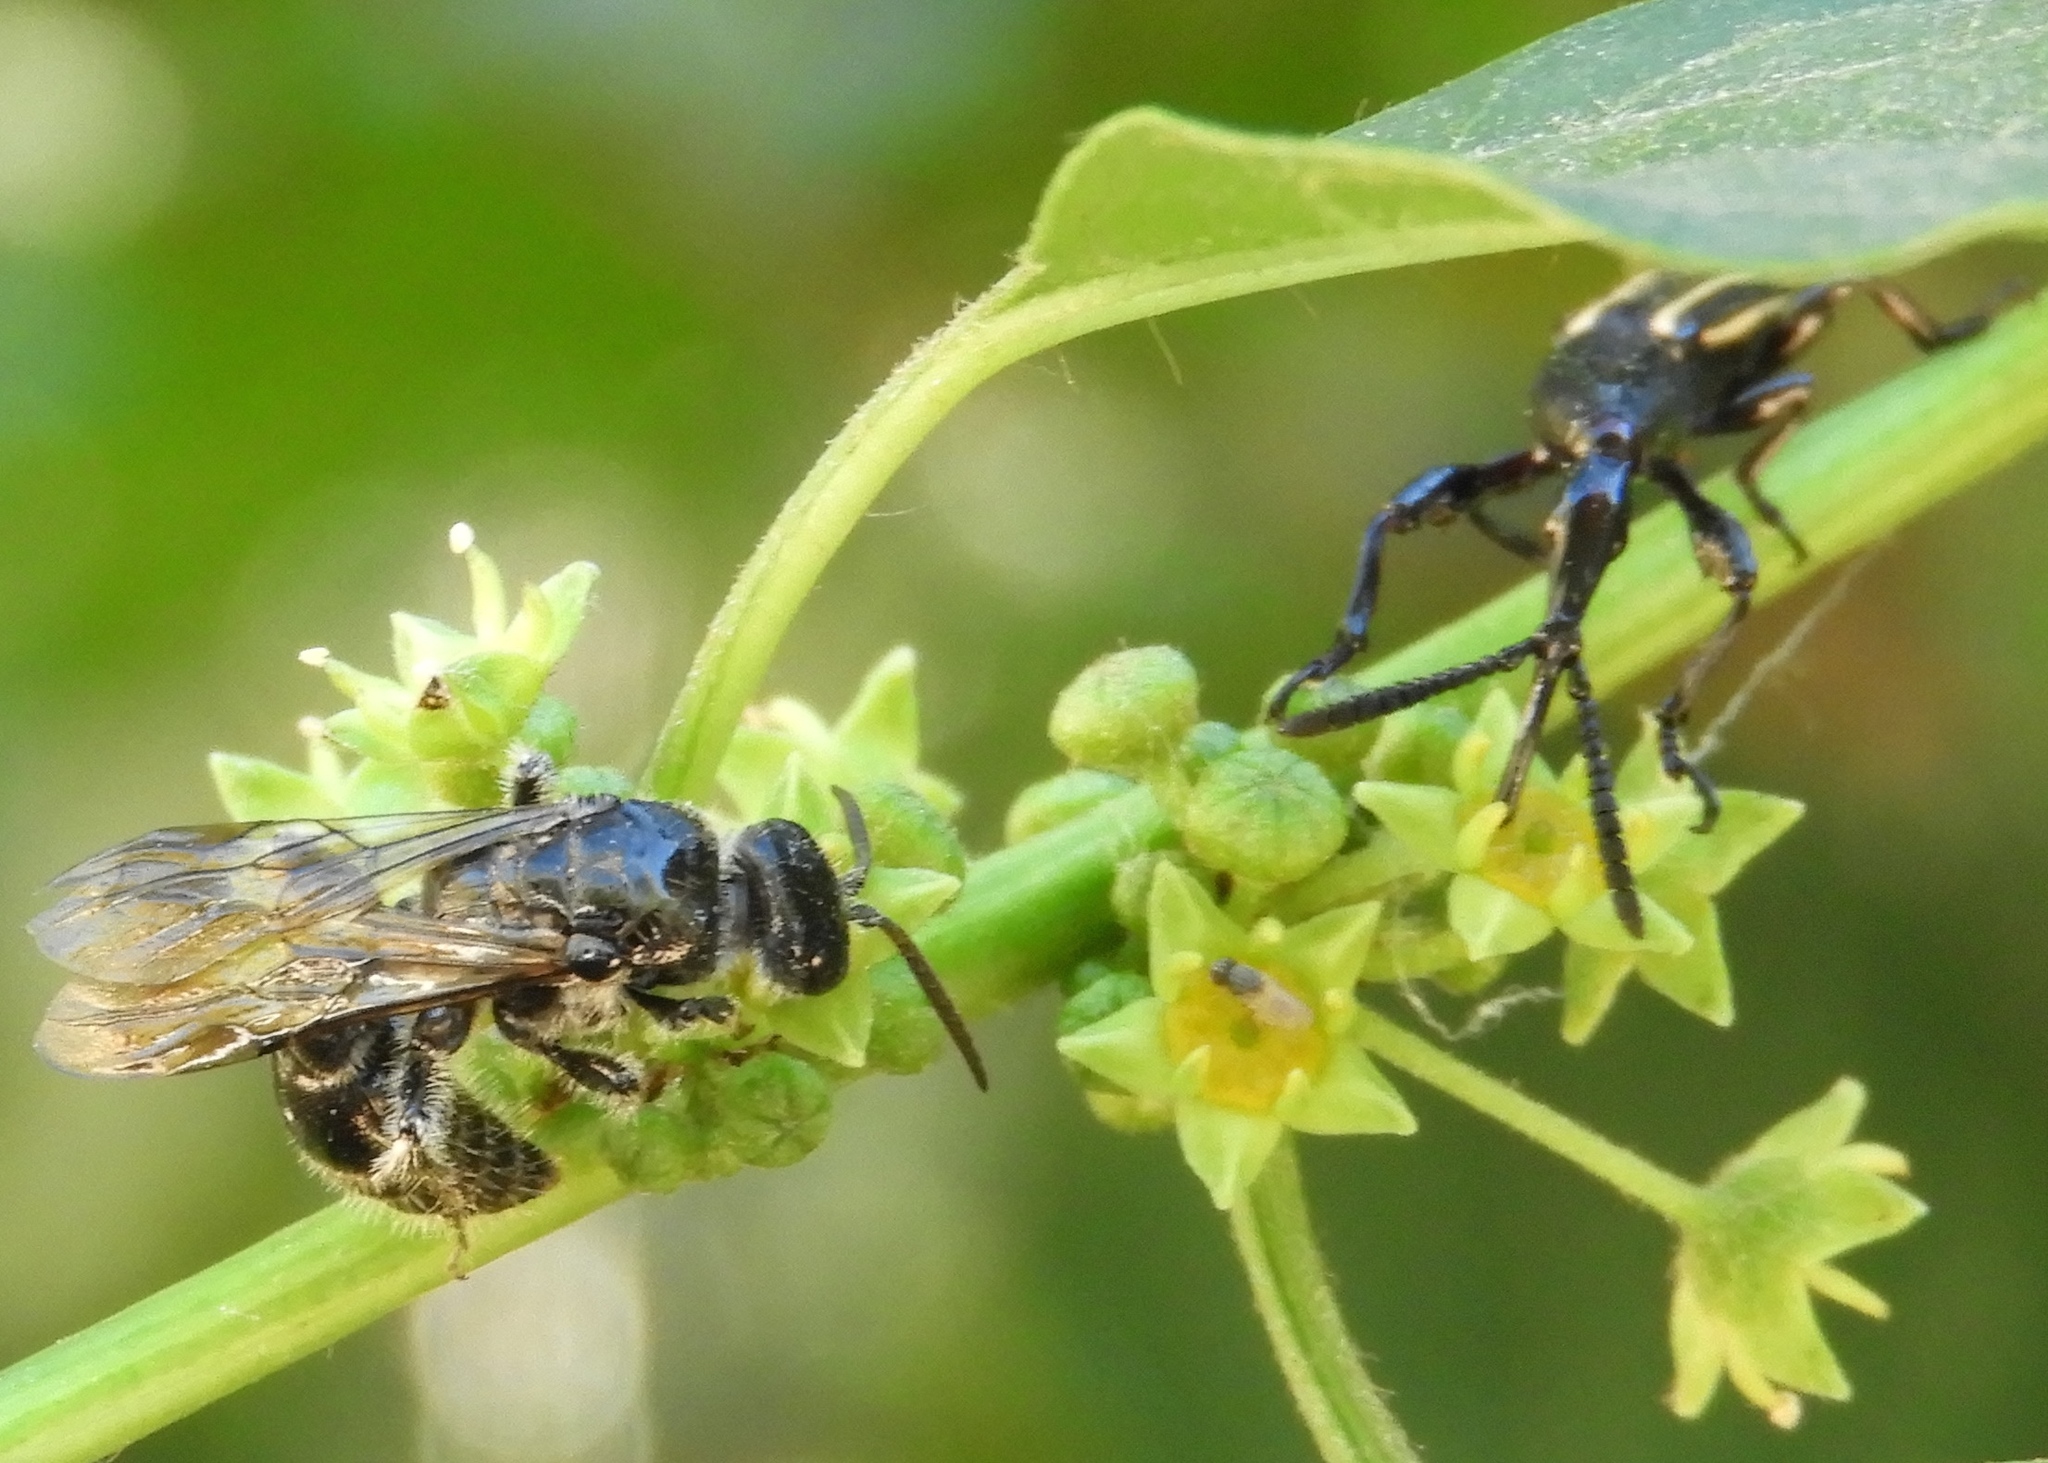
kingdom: Animalia
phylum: Arthropoda
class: Insecta
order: Coleoptera
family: Brentidae
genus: Brentus
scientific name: Brentus
